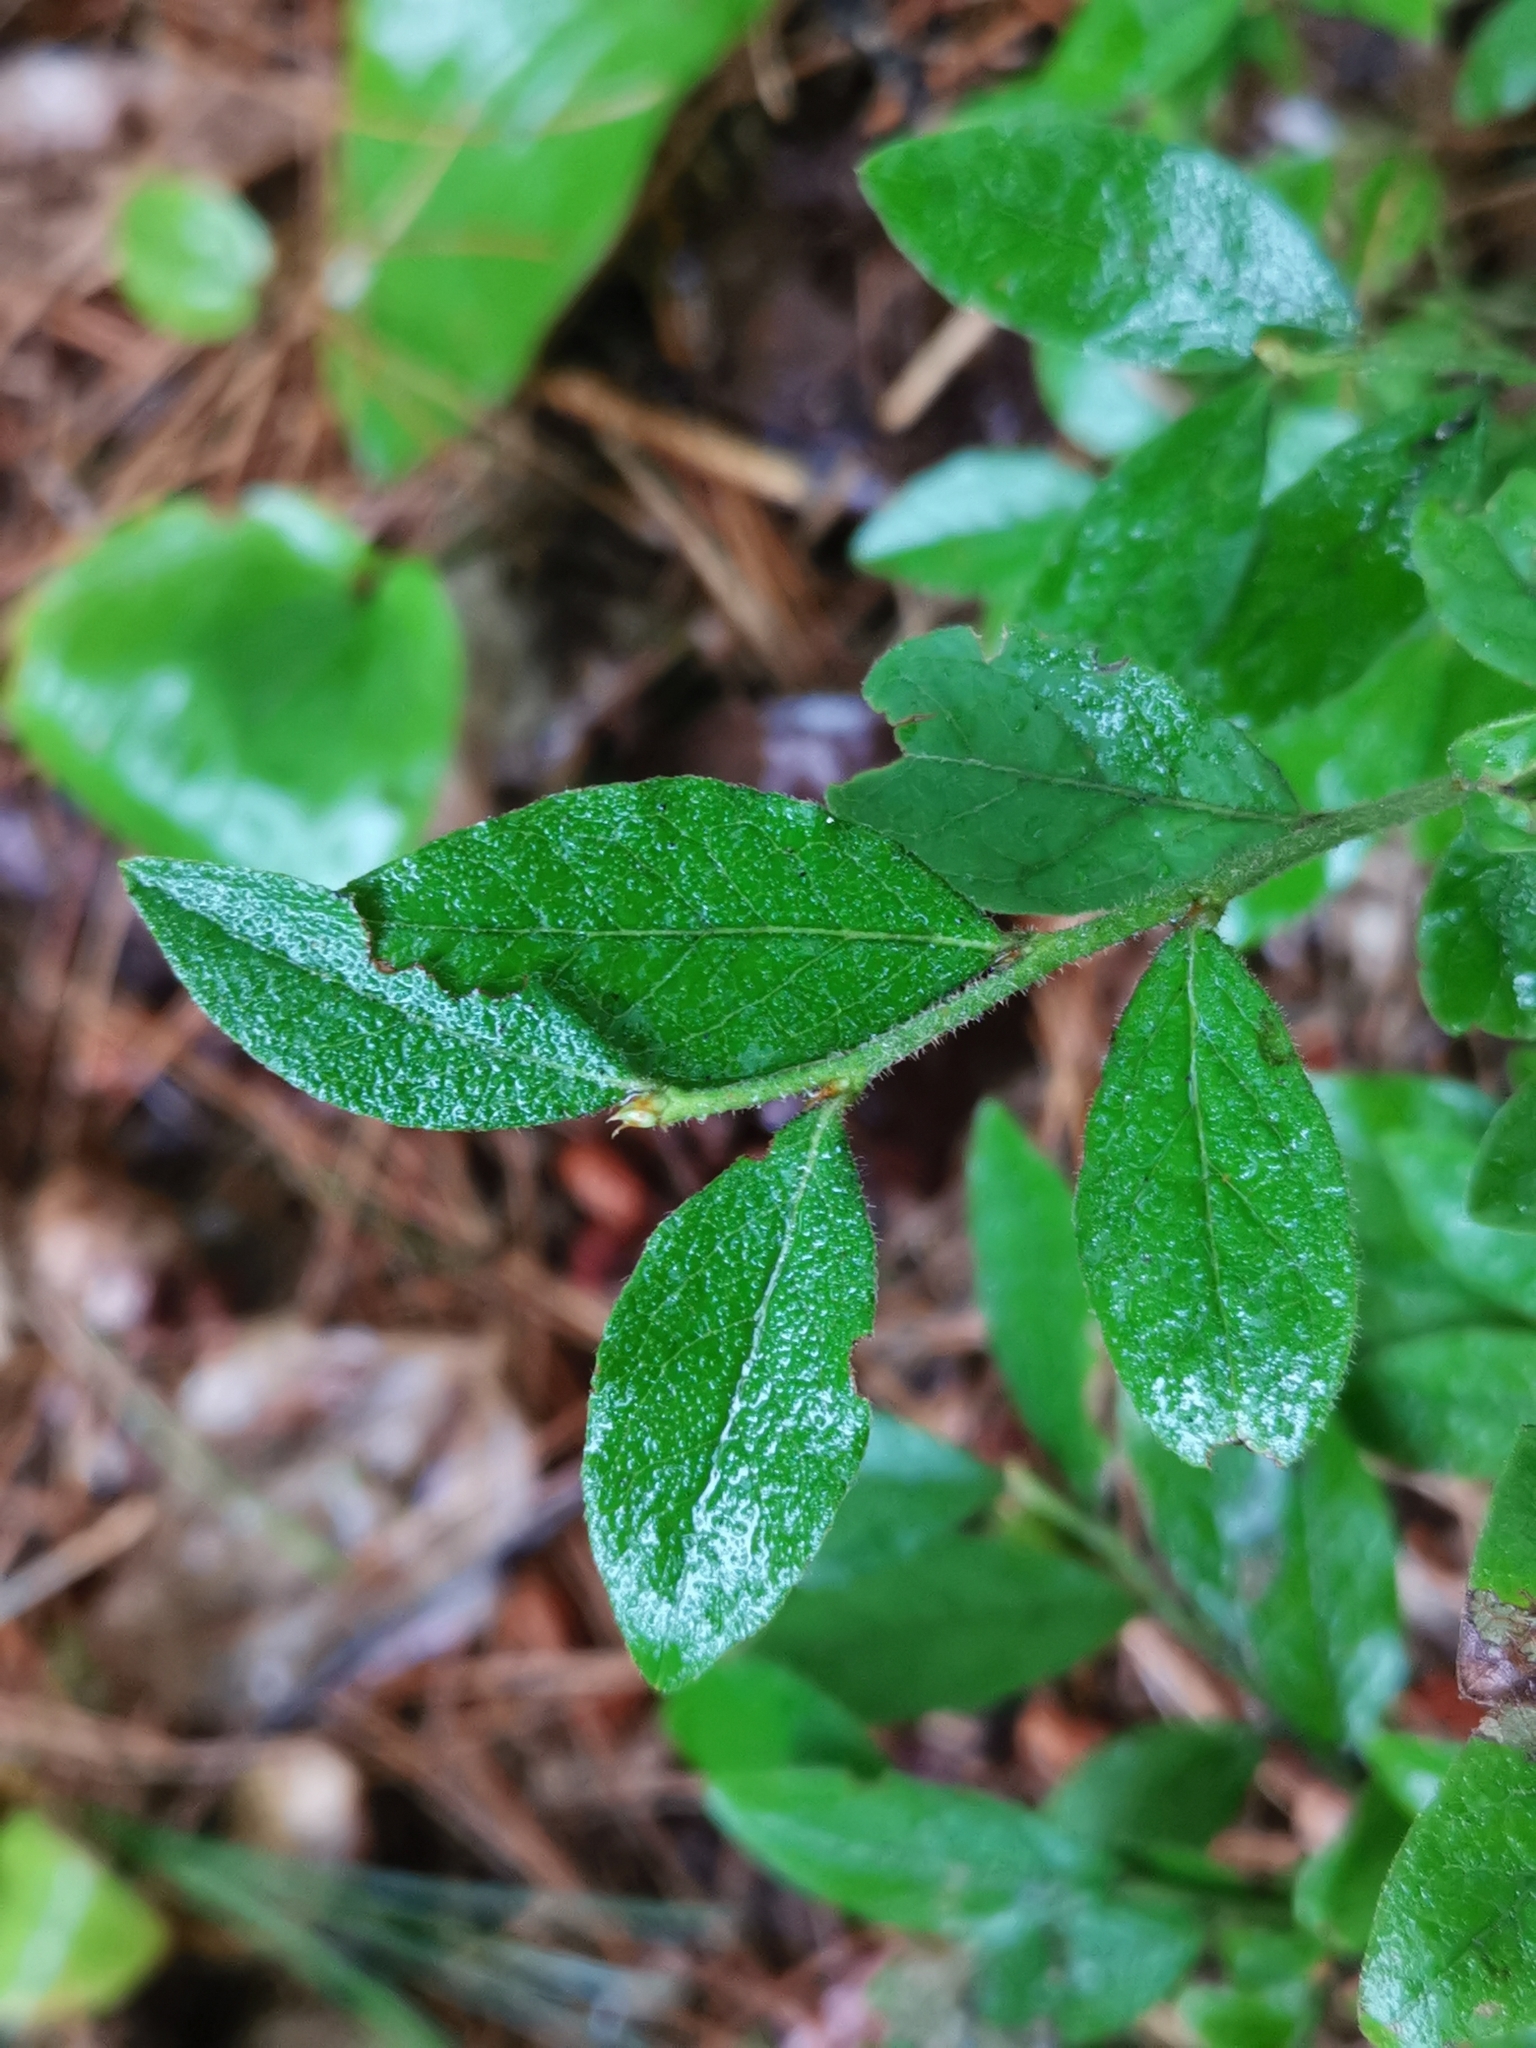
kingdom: Plantae
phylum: Tracheophyta
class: Magnoliopsida
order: Ericales
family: Ericaceae
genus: Vaccinium
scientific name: Vaccinium myrtilloides
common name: Canada blueberry
